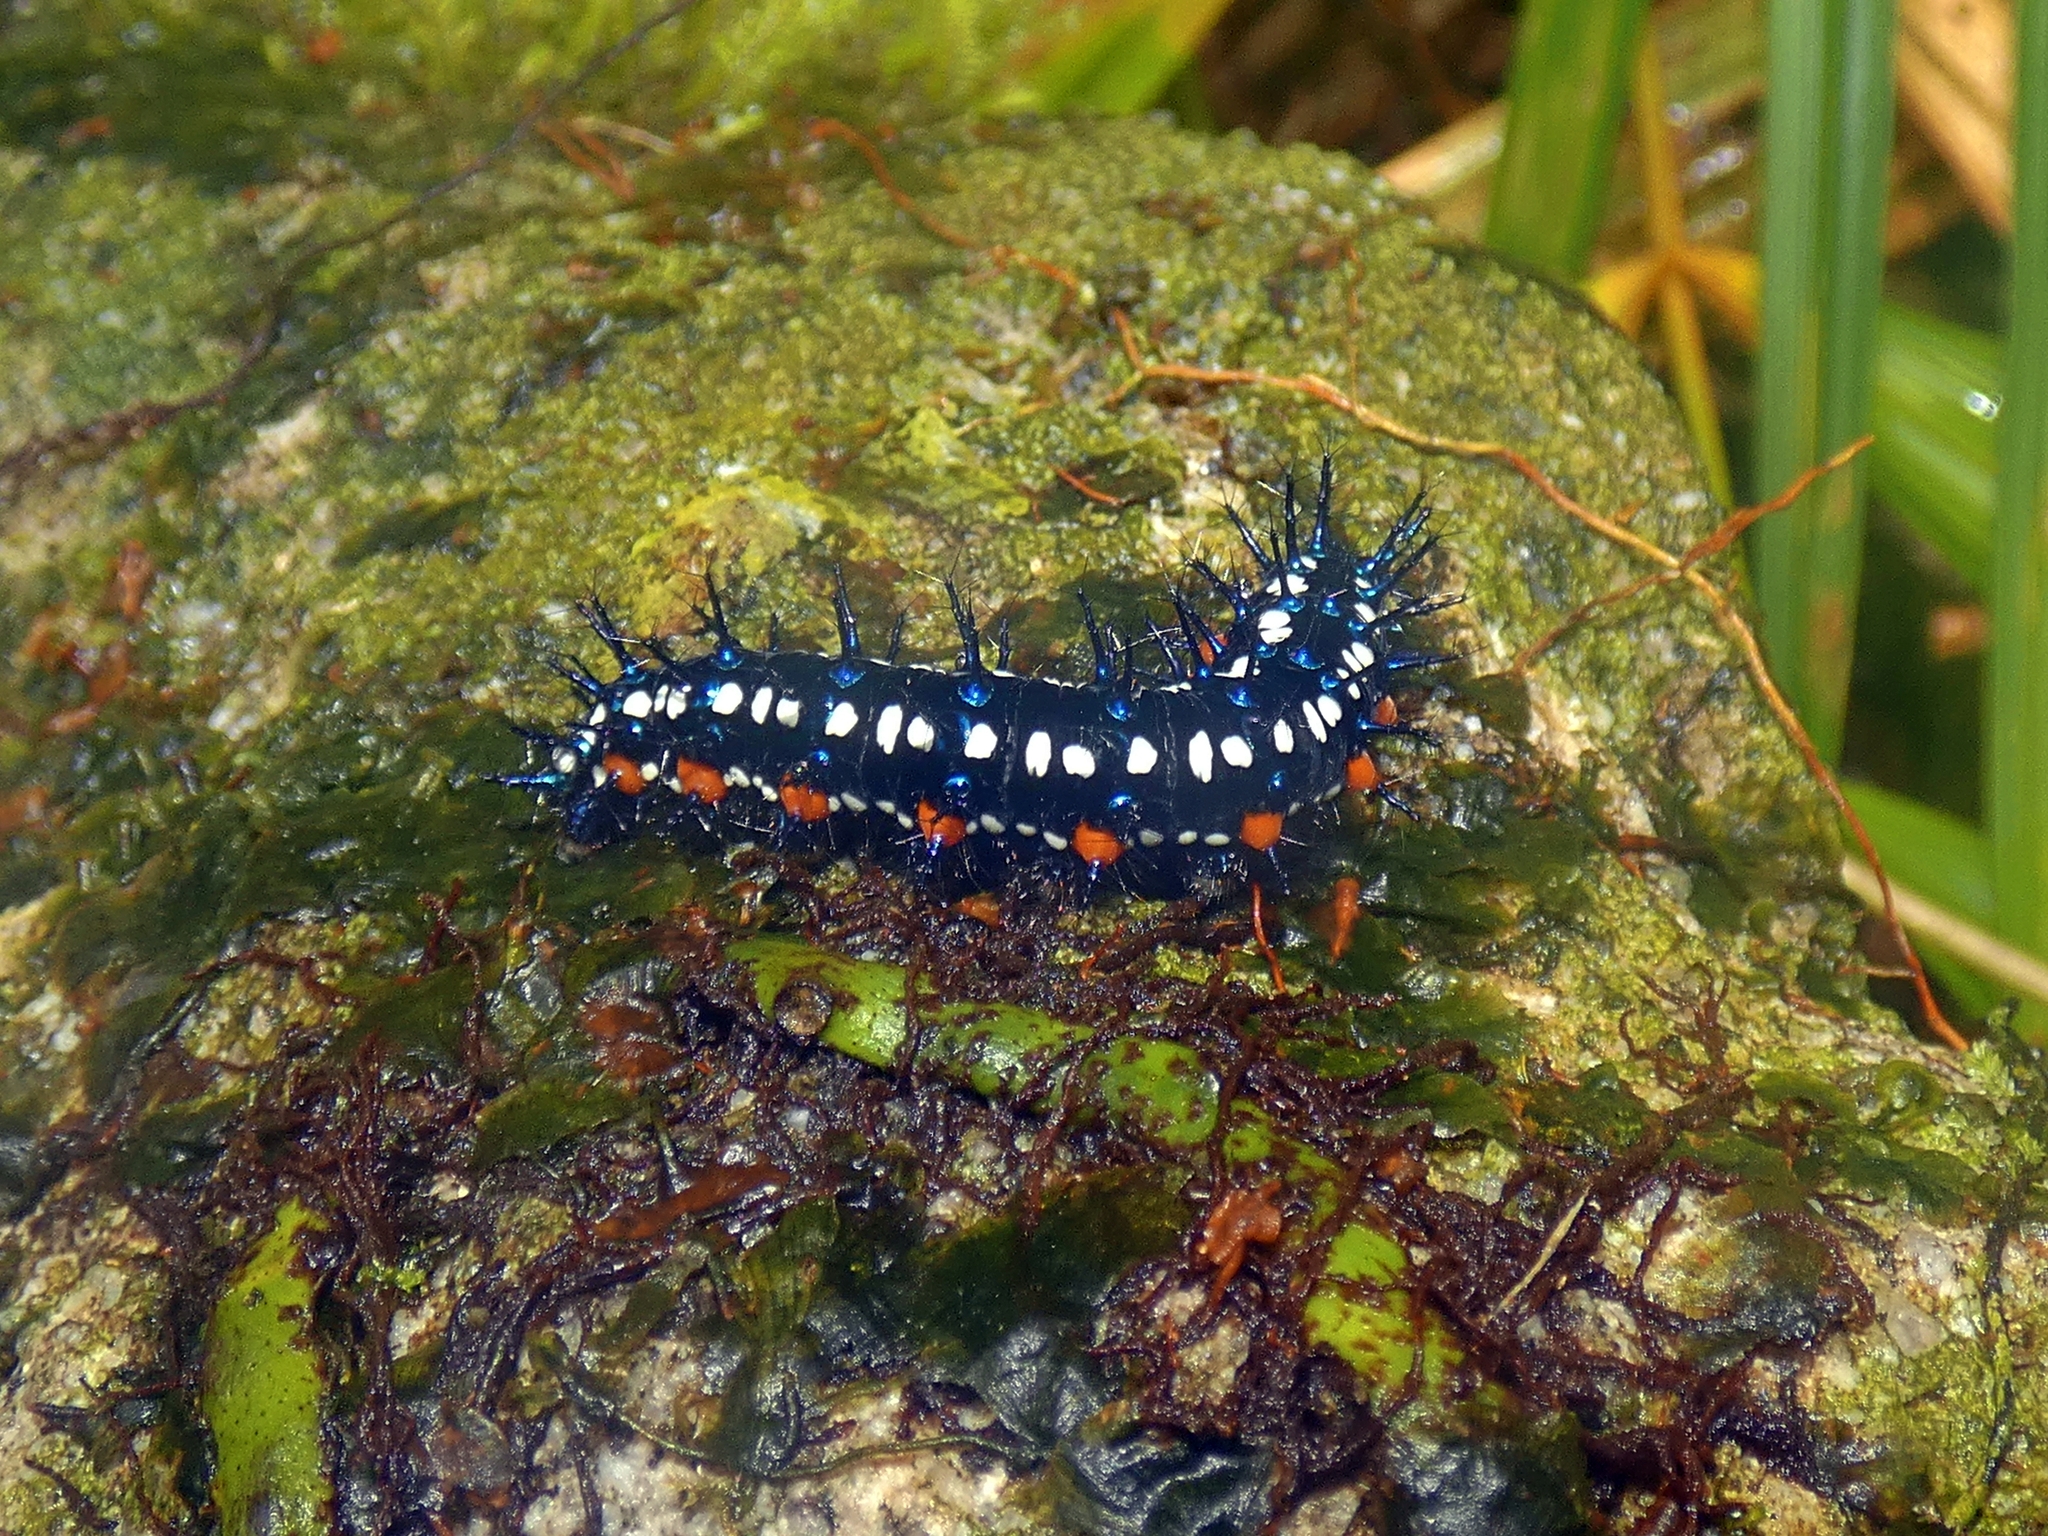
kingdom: Animalia
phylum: Arthropoda
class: Insecta
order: Lepidoptera
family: Nymphalidae
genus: Doleschallia
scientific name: Doleschallia bisaltide
